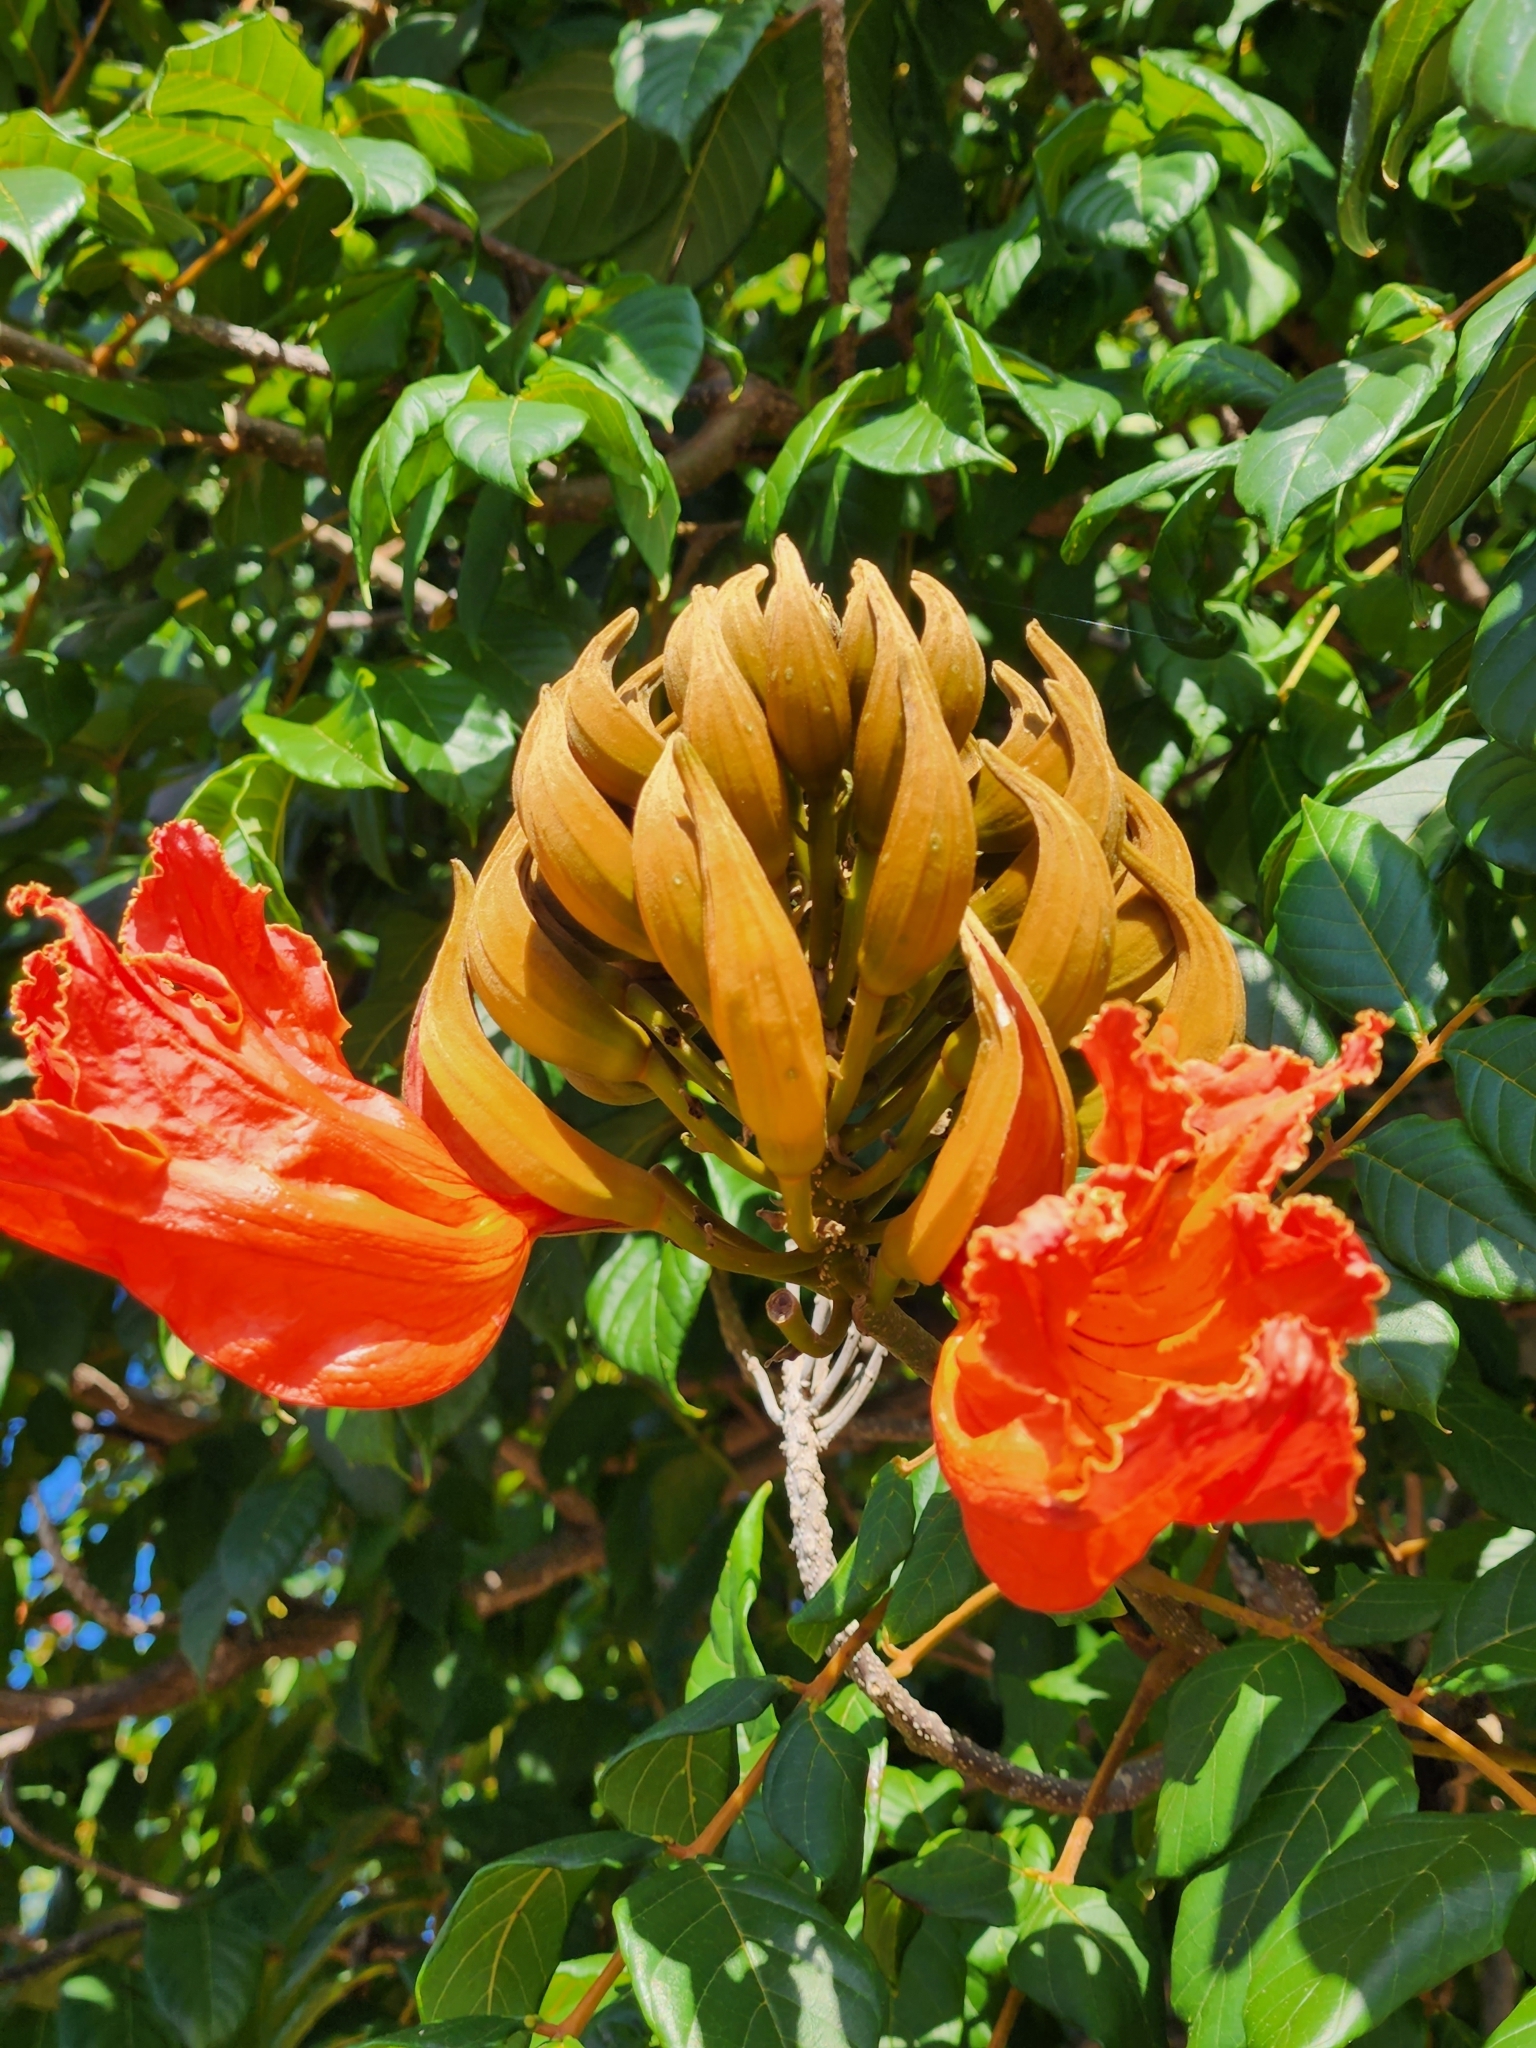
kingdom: Plantae
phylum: Tracheophyta
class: Magnoliopsida
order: Lamiales
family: Bignoniaceae
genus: Spathodea
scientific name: Spathodea campanulata
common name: African tuliptree
